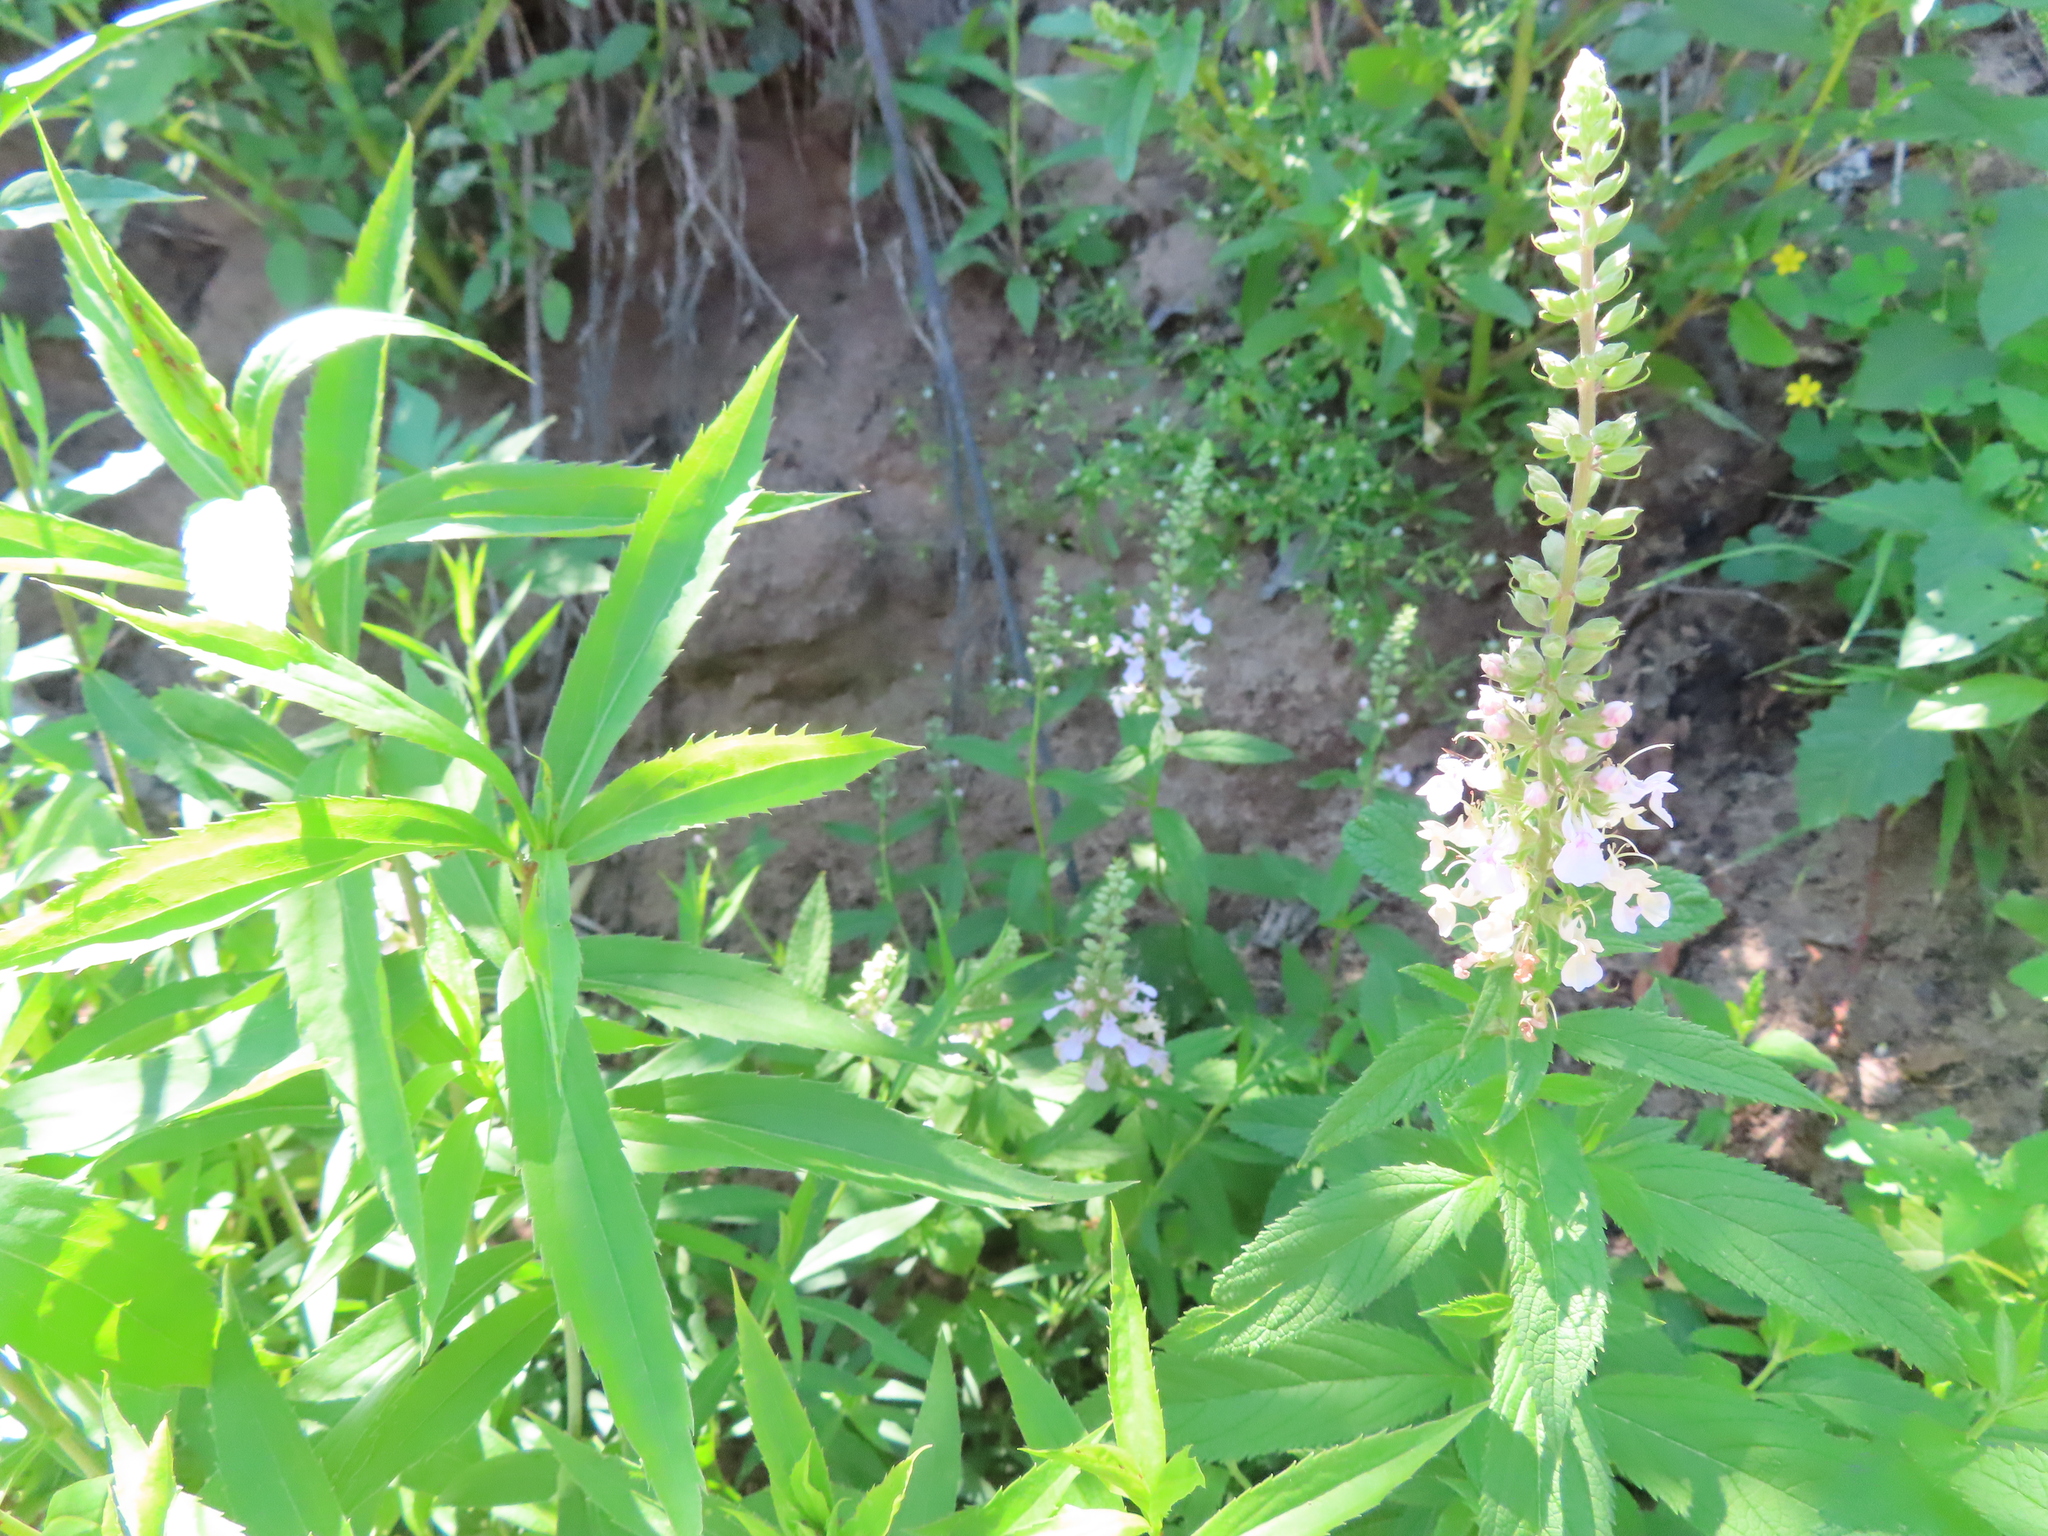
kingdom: Plantae
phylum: Tracheophyta
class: Magnoliopsida
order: Lamiales
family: Lamiaceae
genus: Teucrium
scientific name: Teucrium canadense
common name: American germander
